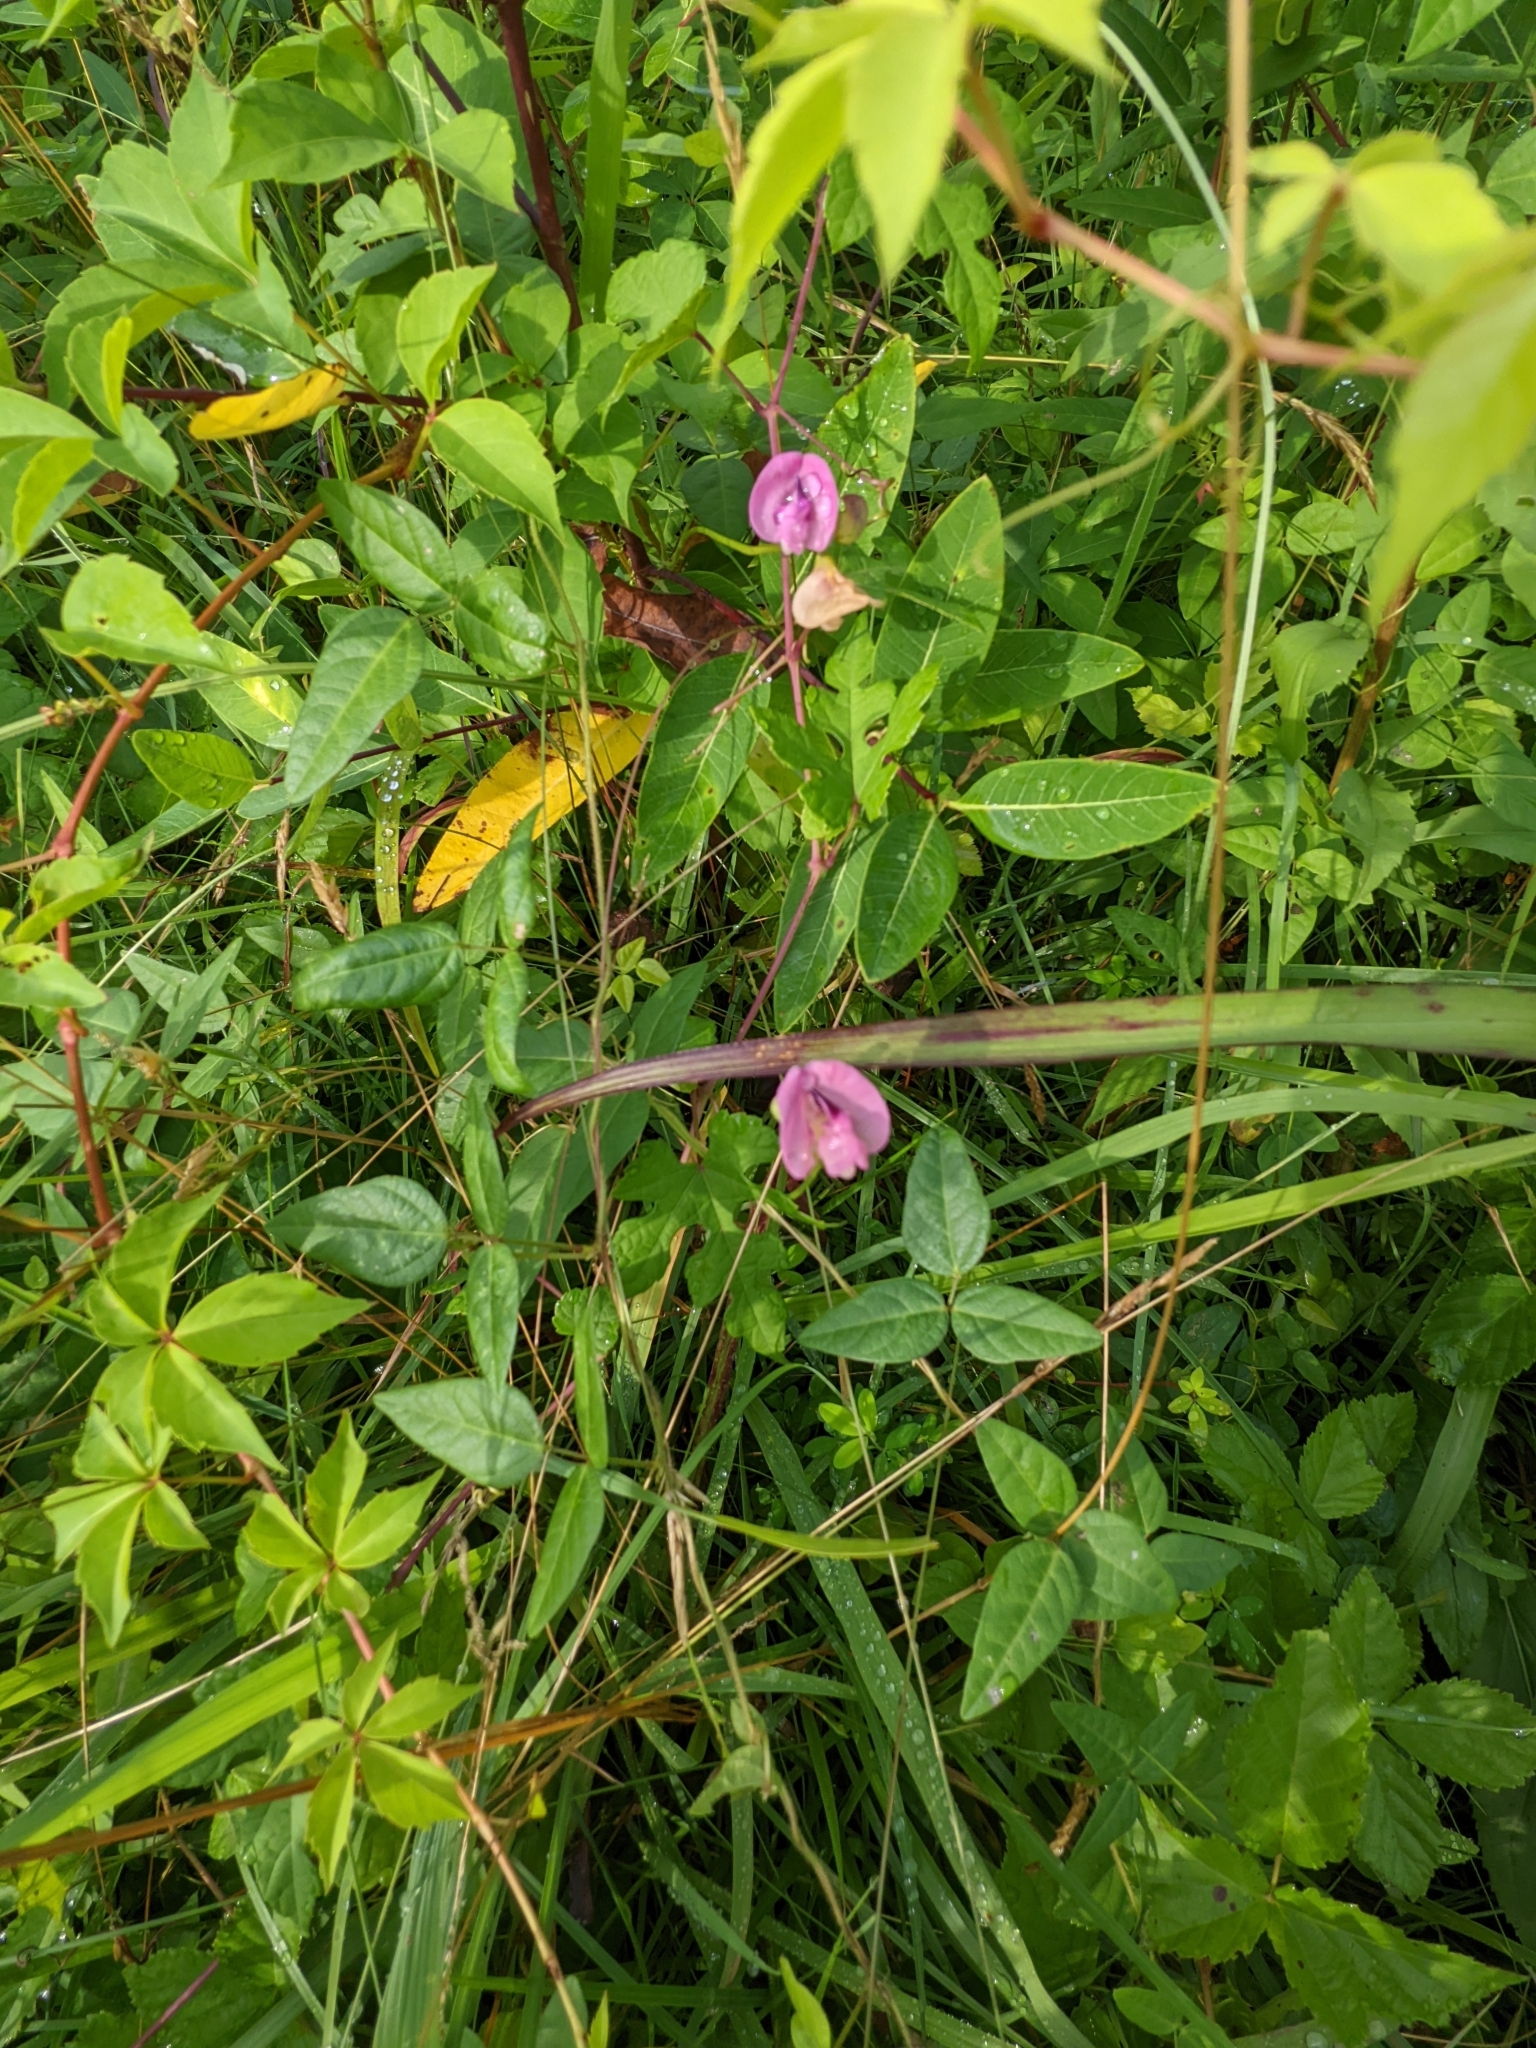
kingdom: Plantae
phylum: Tracheophyta
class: Magnoliopsida
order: Fabales
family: Fabaceae
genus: Strophostyles
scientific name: Strophostyles umbellata
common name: Perennial wild bean
